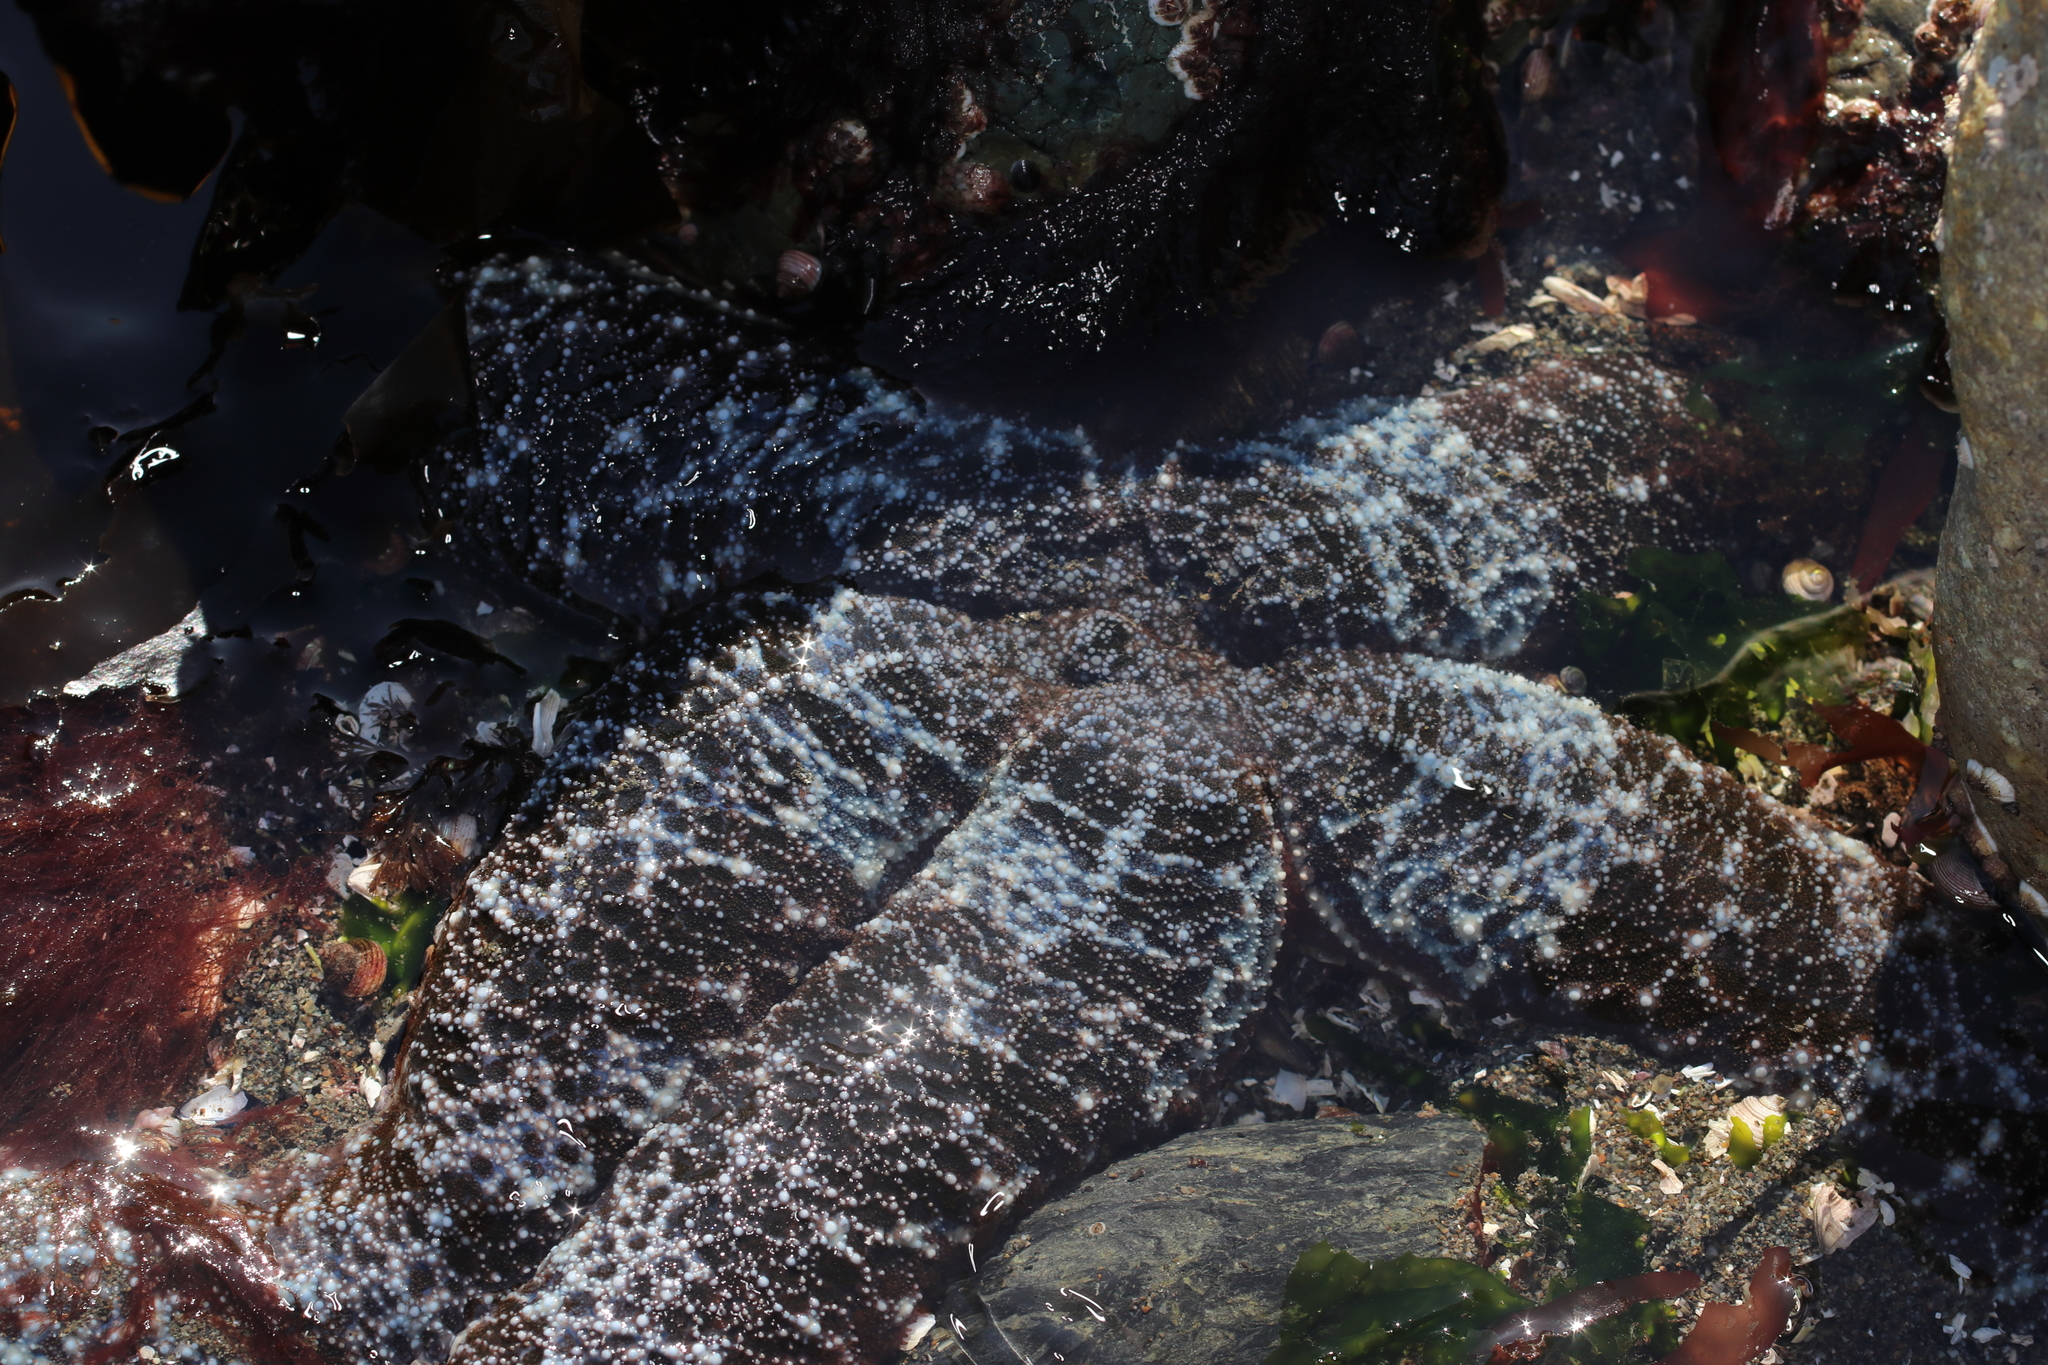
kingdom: Animalia
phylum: Echinodermata
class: Asteroidea
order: Forcipulatida
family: Asteriidae
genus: Evasterias
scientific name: Evasterias troschelii
